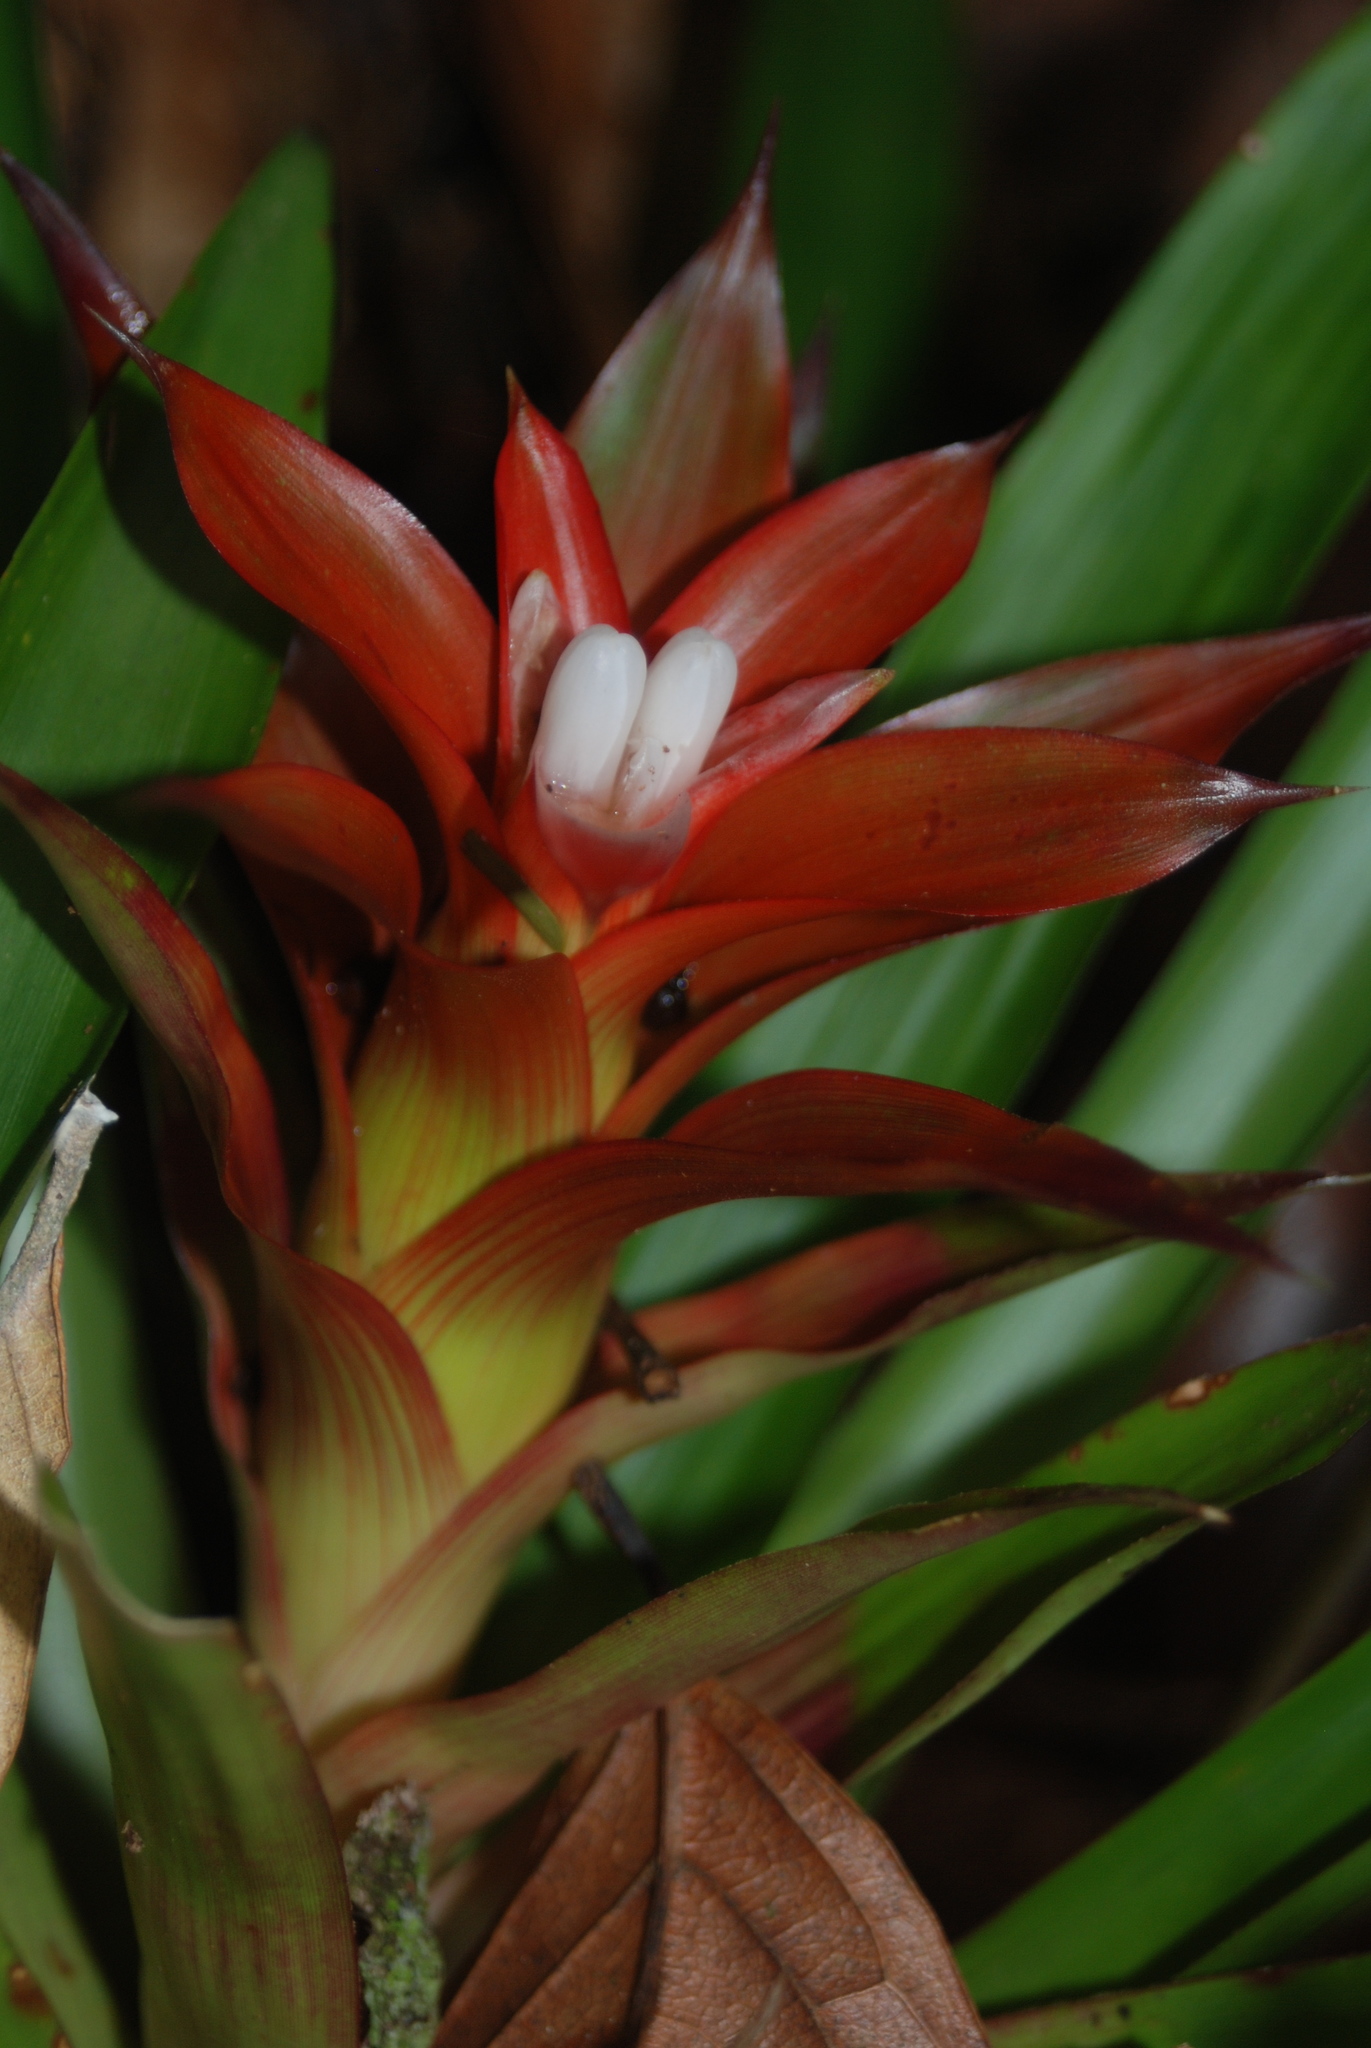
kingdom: Plantae
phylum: Tracheophyta
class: Liliopsida
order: Poales
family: Bromeliaceae
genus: Guzmania
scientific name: Guzmania lingulata
